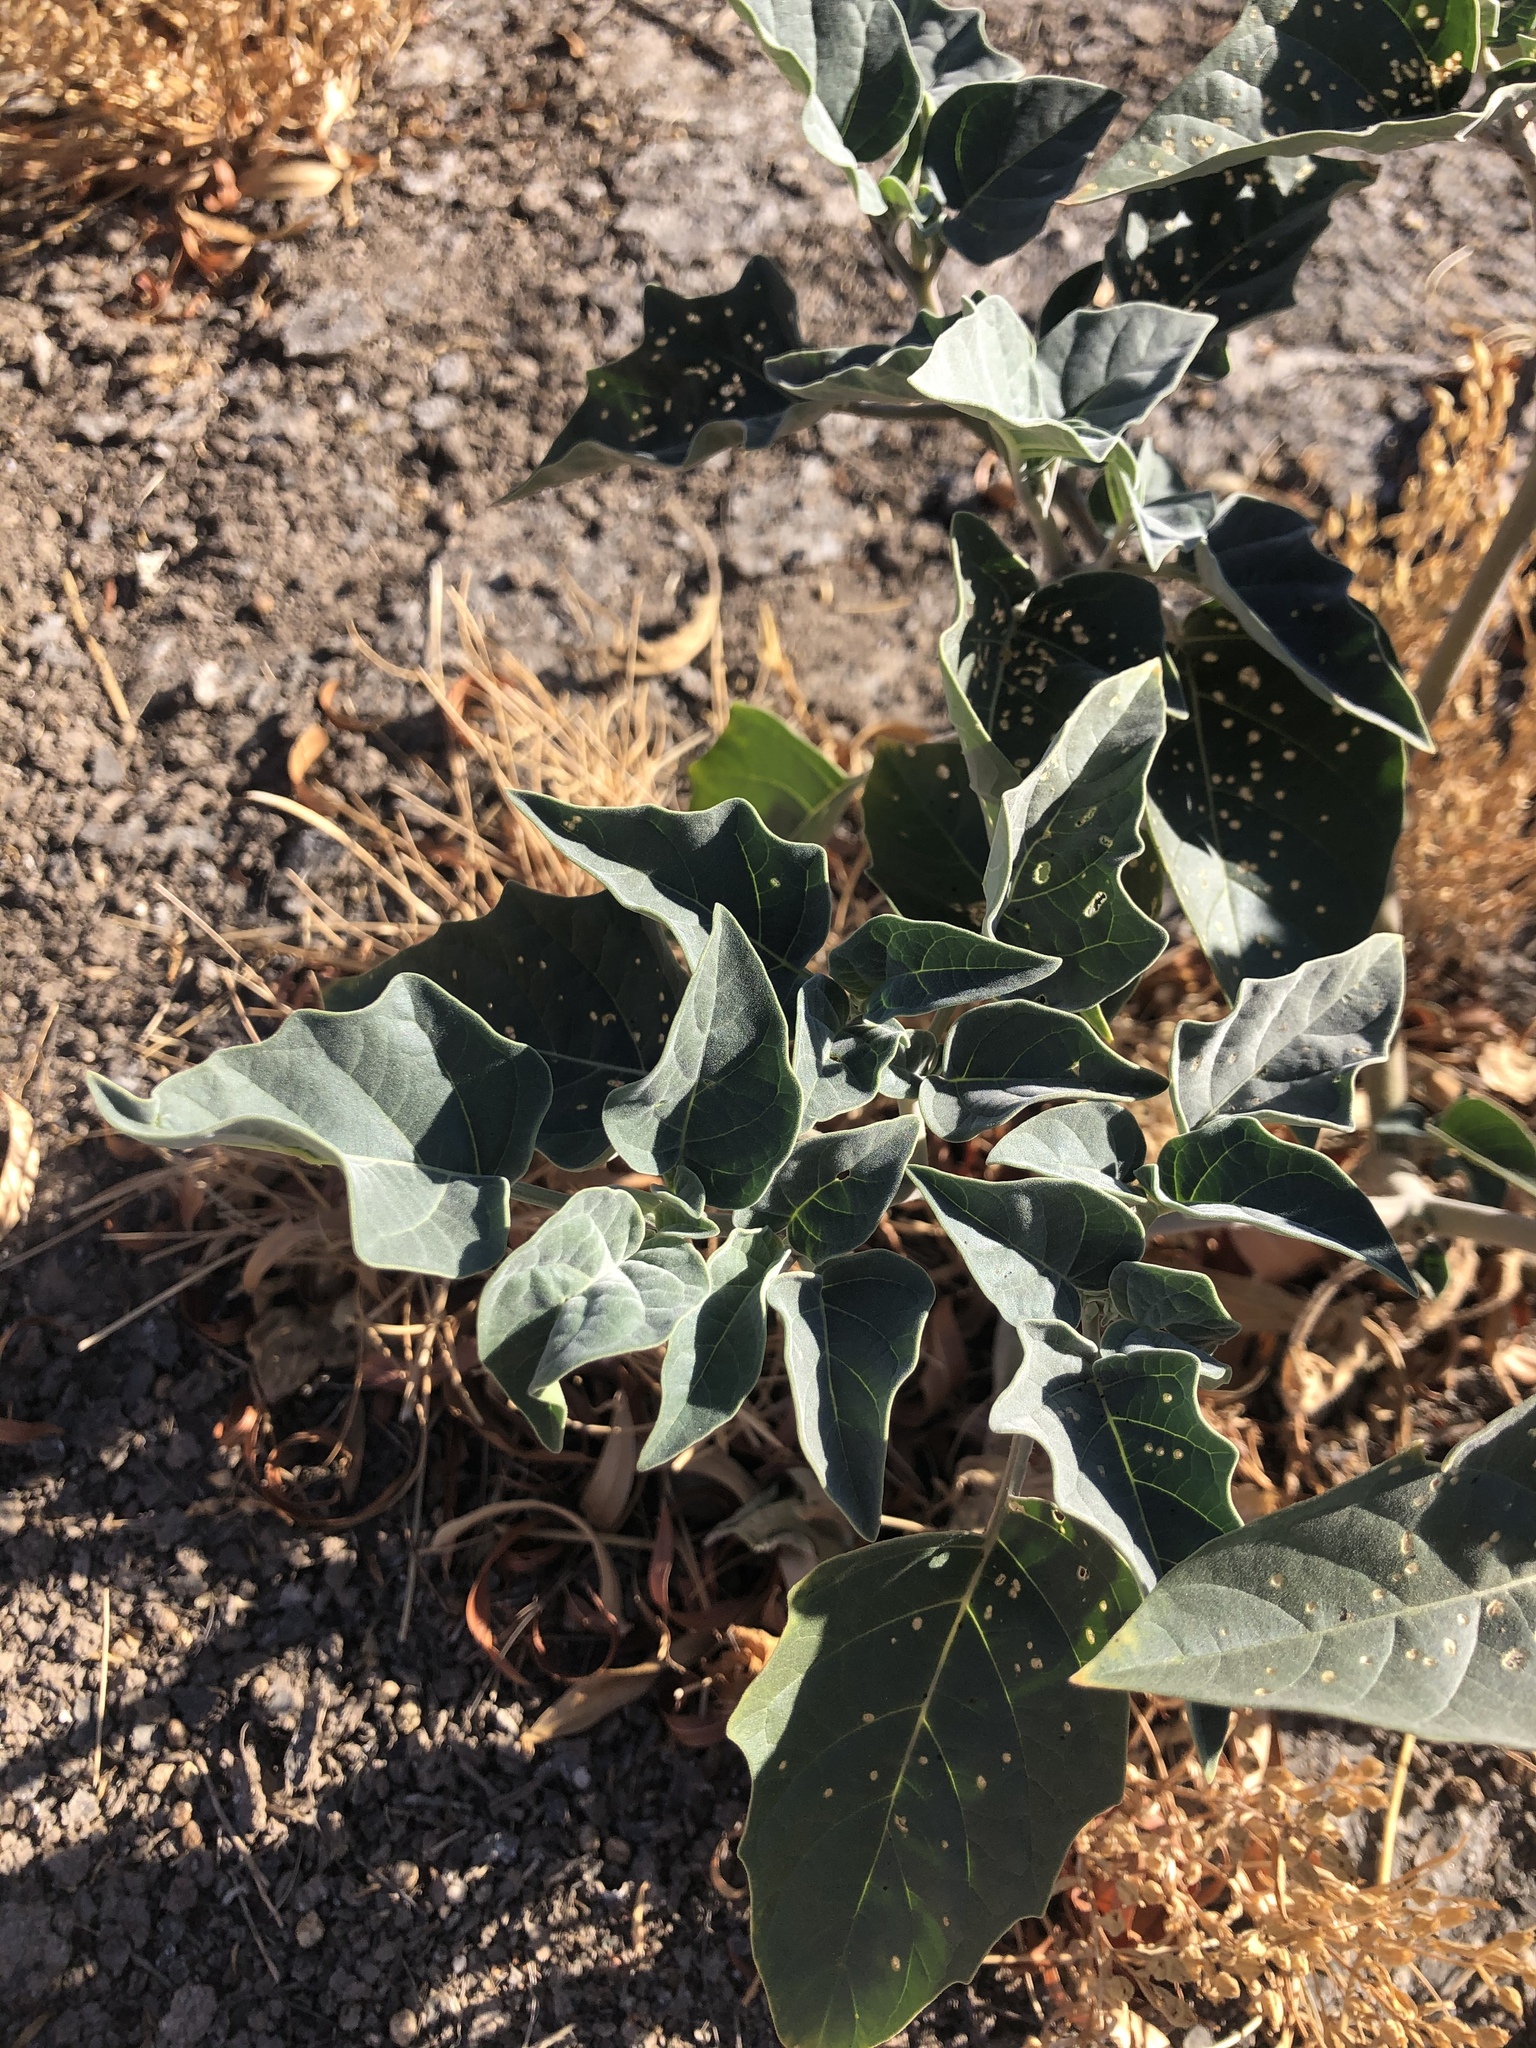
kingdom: Plantae
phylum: Tracheophyta
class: Magnoliopsida
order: Solanales
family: Solanaceae
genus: Datura
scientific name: Datura wrightii
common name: Sacred thorn-apple
